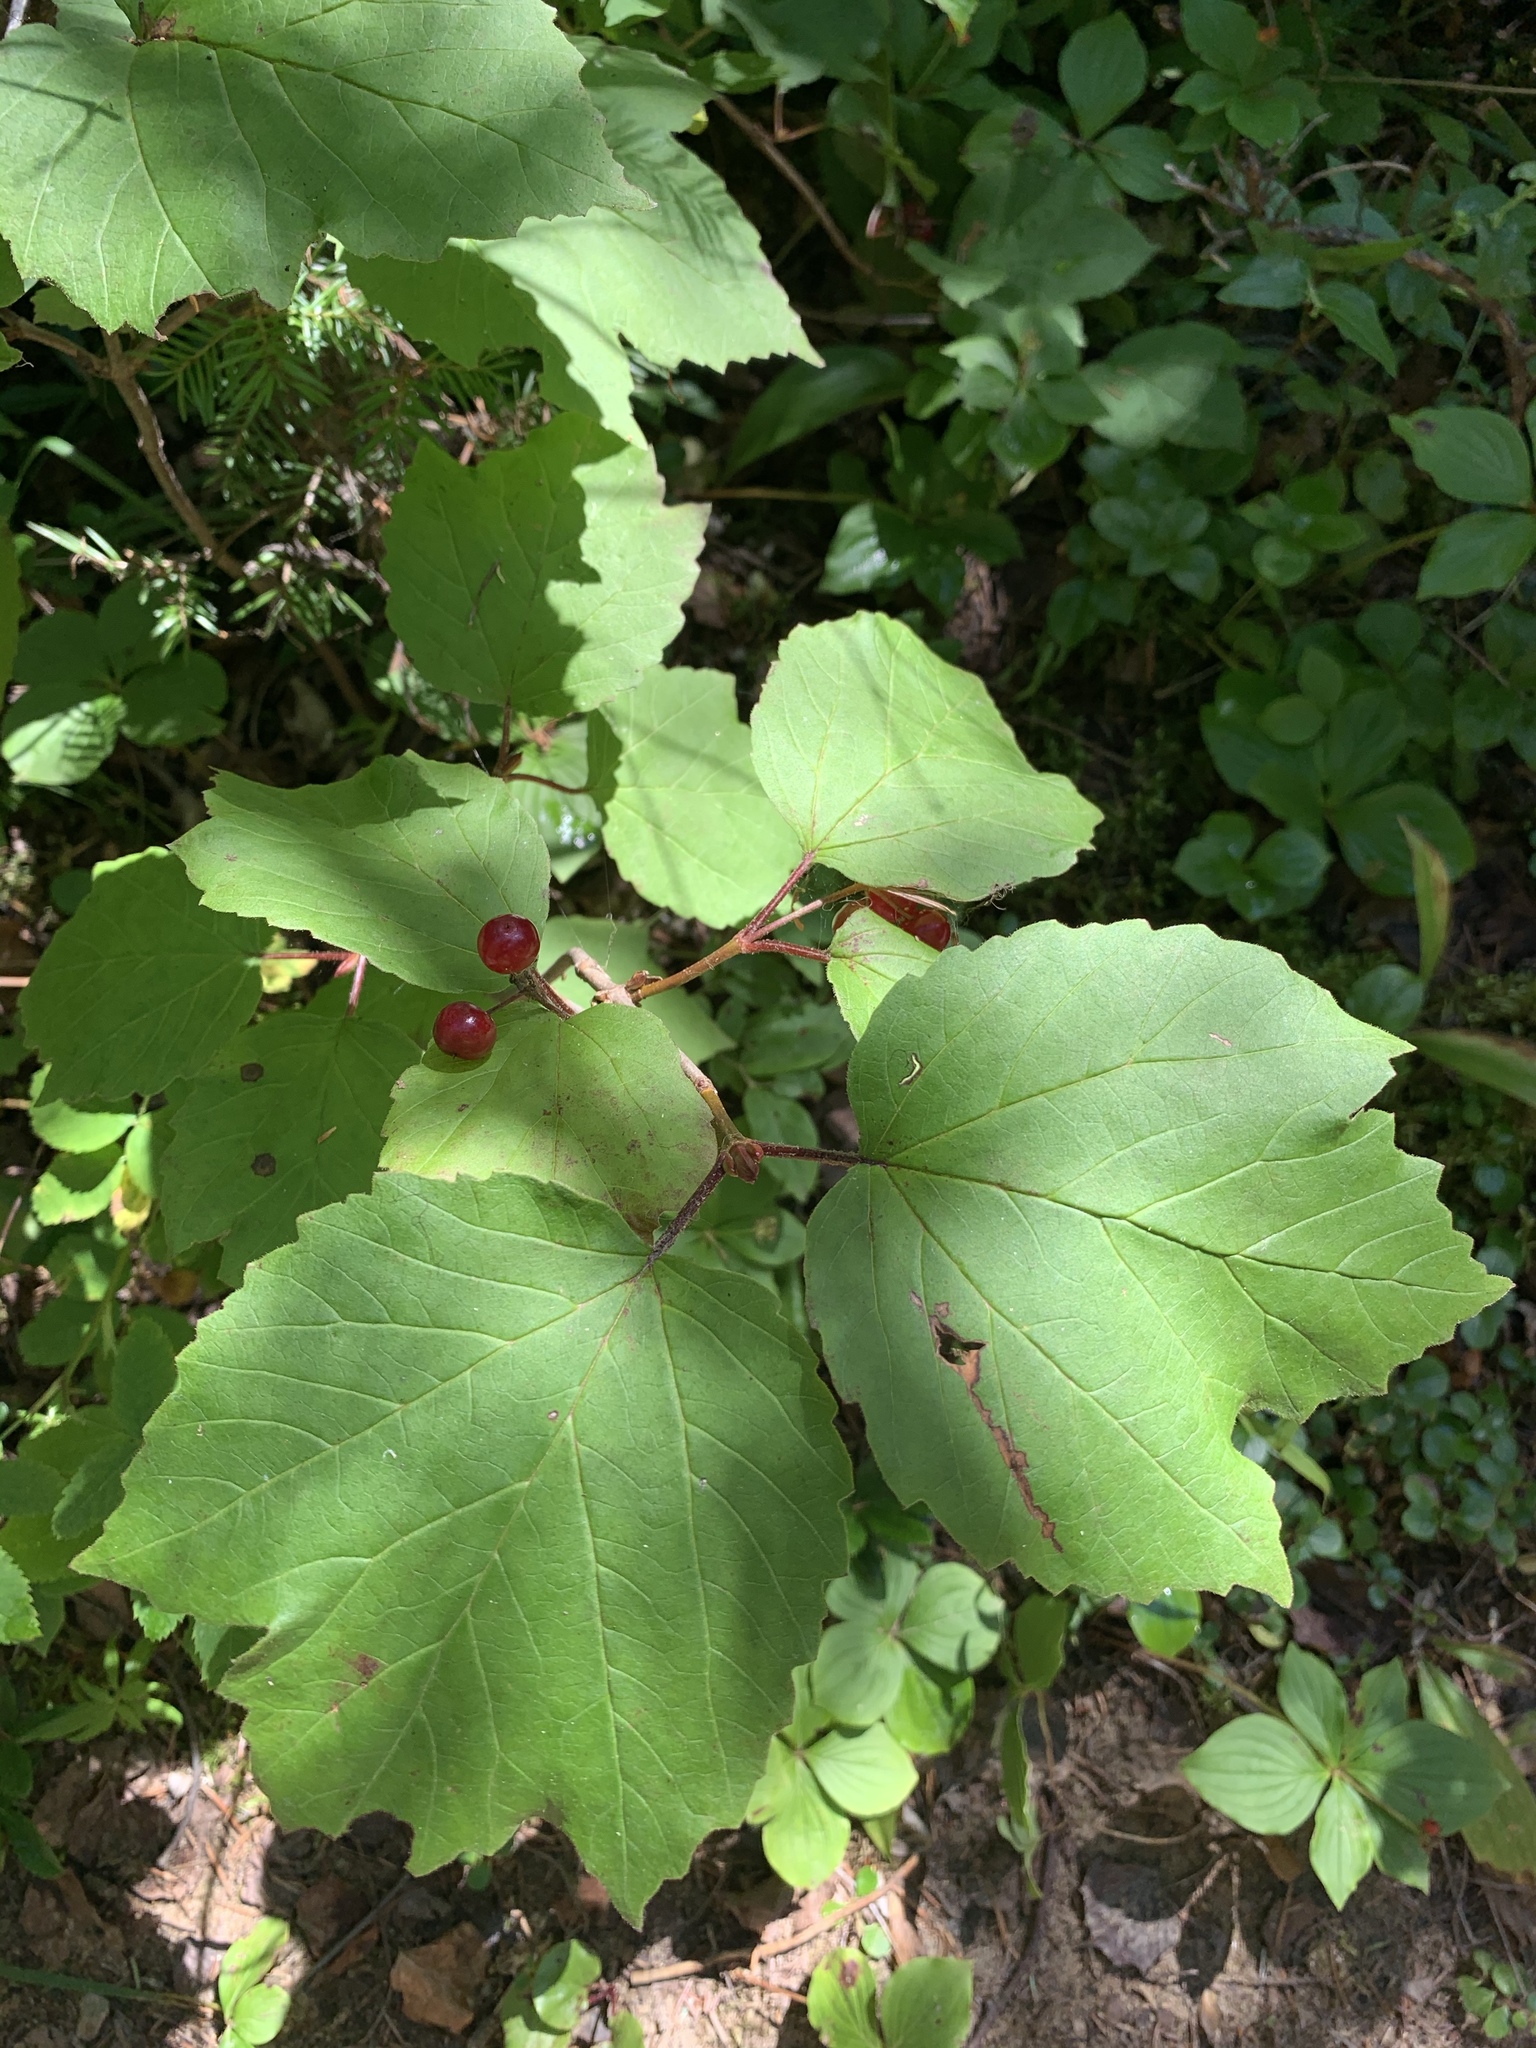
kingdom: Plantae
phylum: Tracheophyta
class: Magnoliopsida
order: Dipsacales
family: Viburnaceae
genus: Viburnum
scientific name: Viburnum edule
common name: Mooseberry
